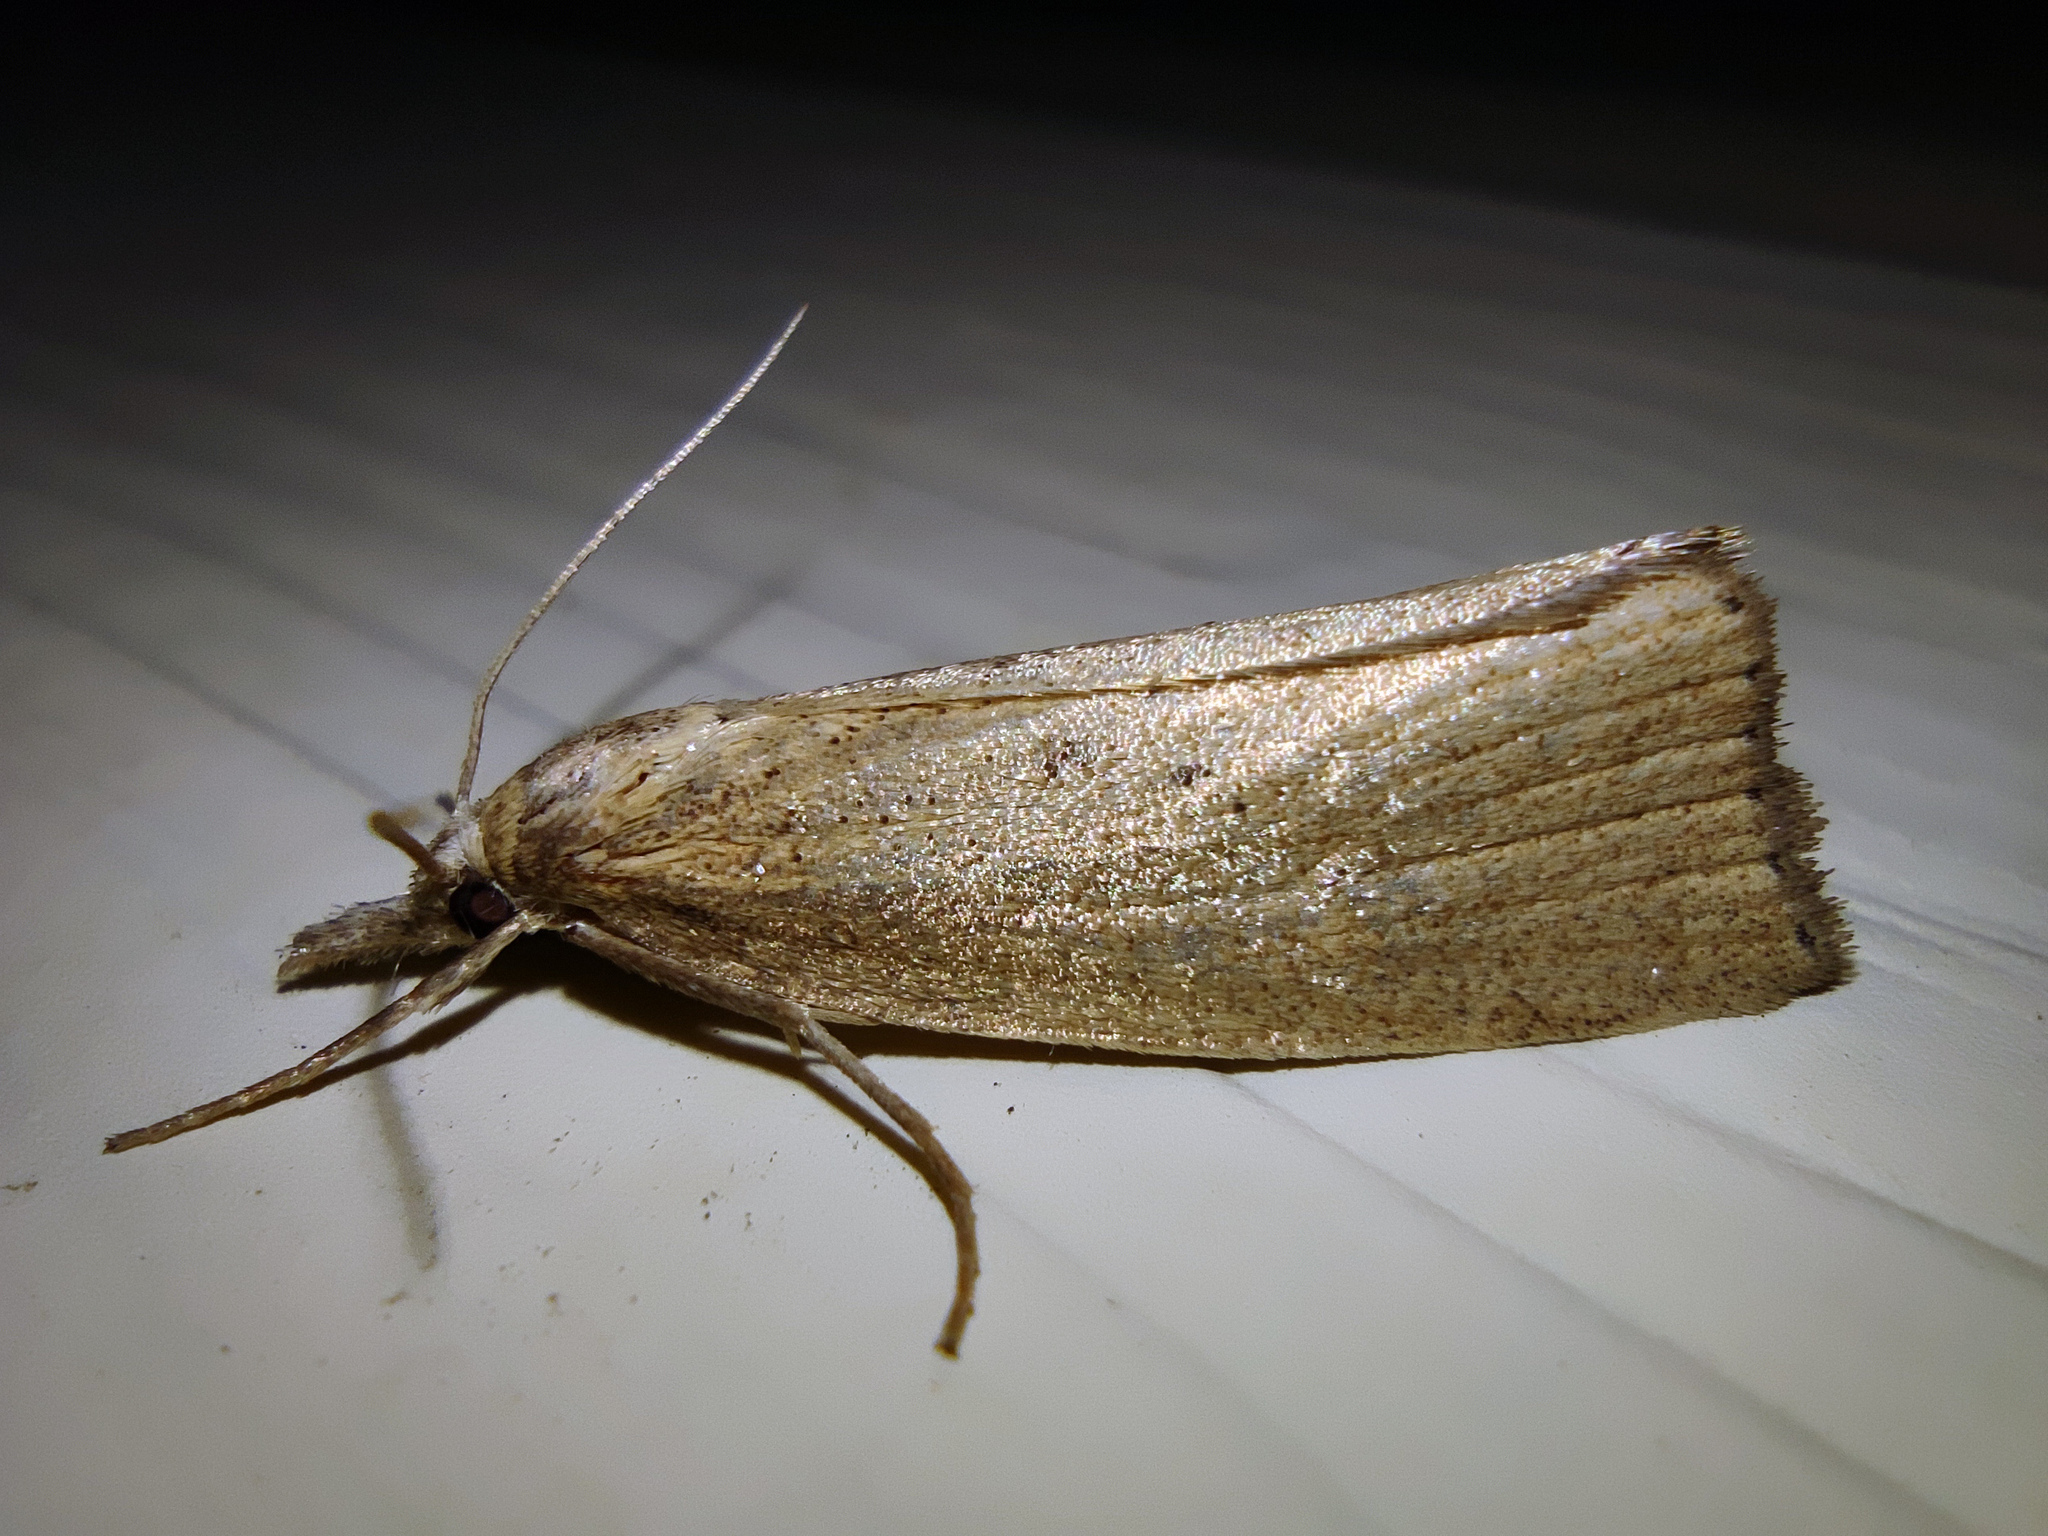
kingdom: Animalia
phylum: Arthropoda
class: Insecta
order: Lepidoptera
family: Crambidae
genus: Chilo
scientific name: Chilo phragmitella
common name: Reed veneer
